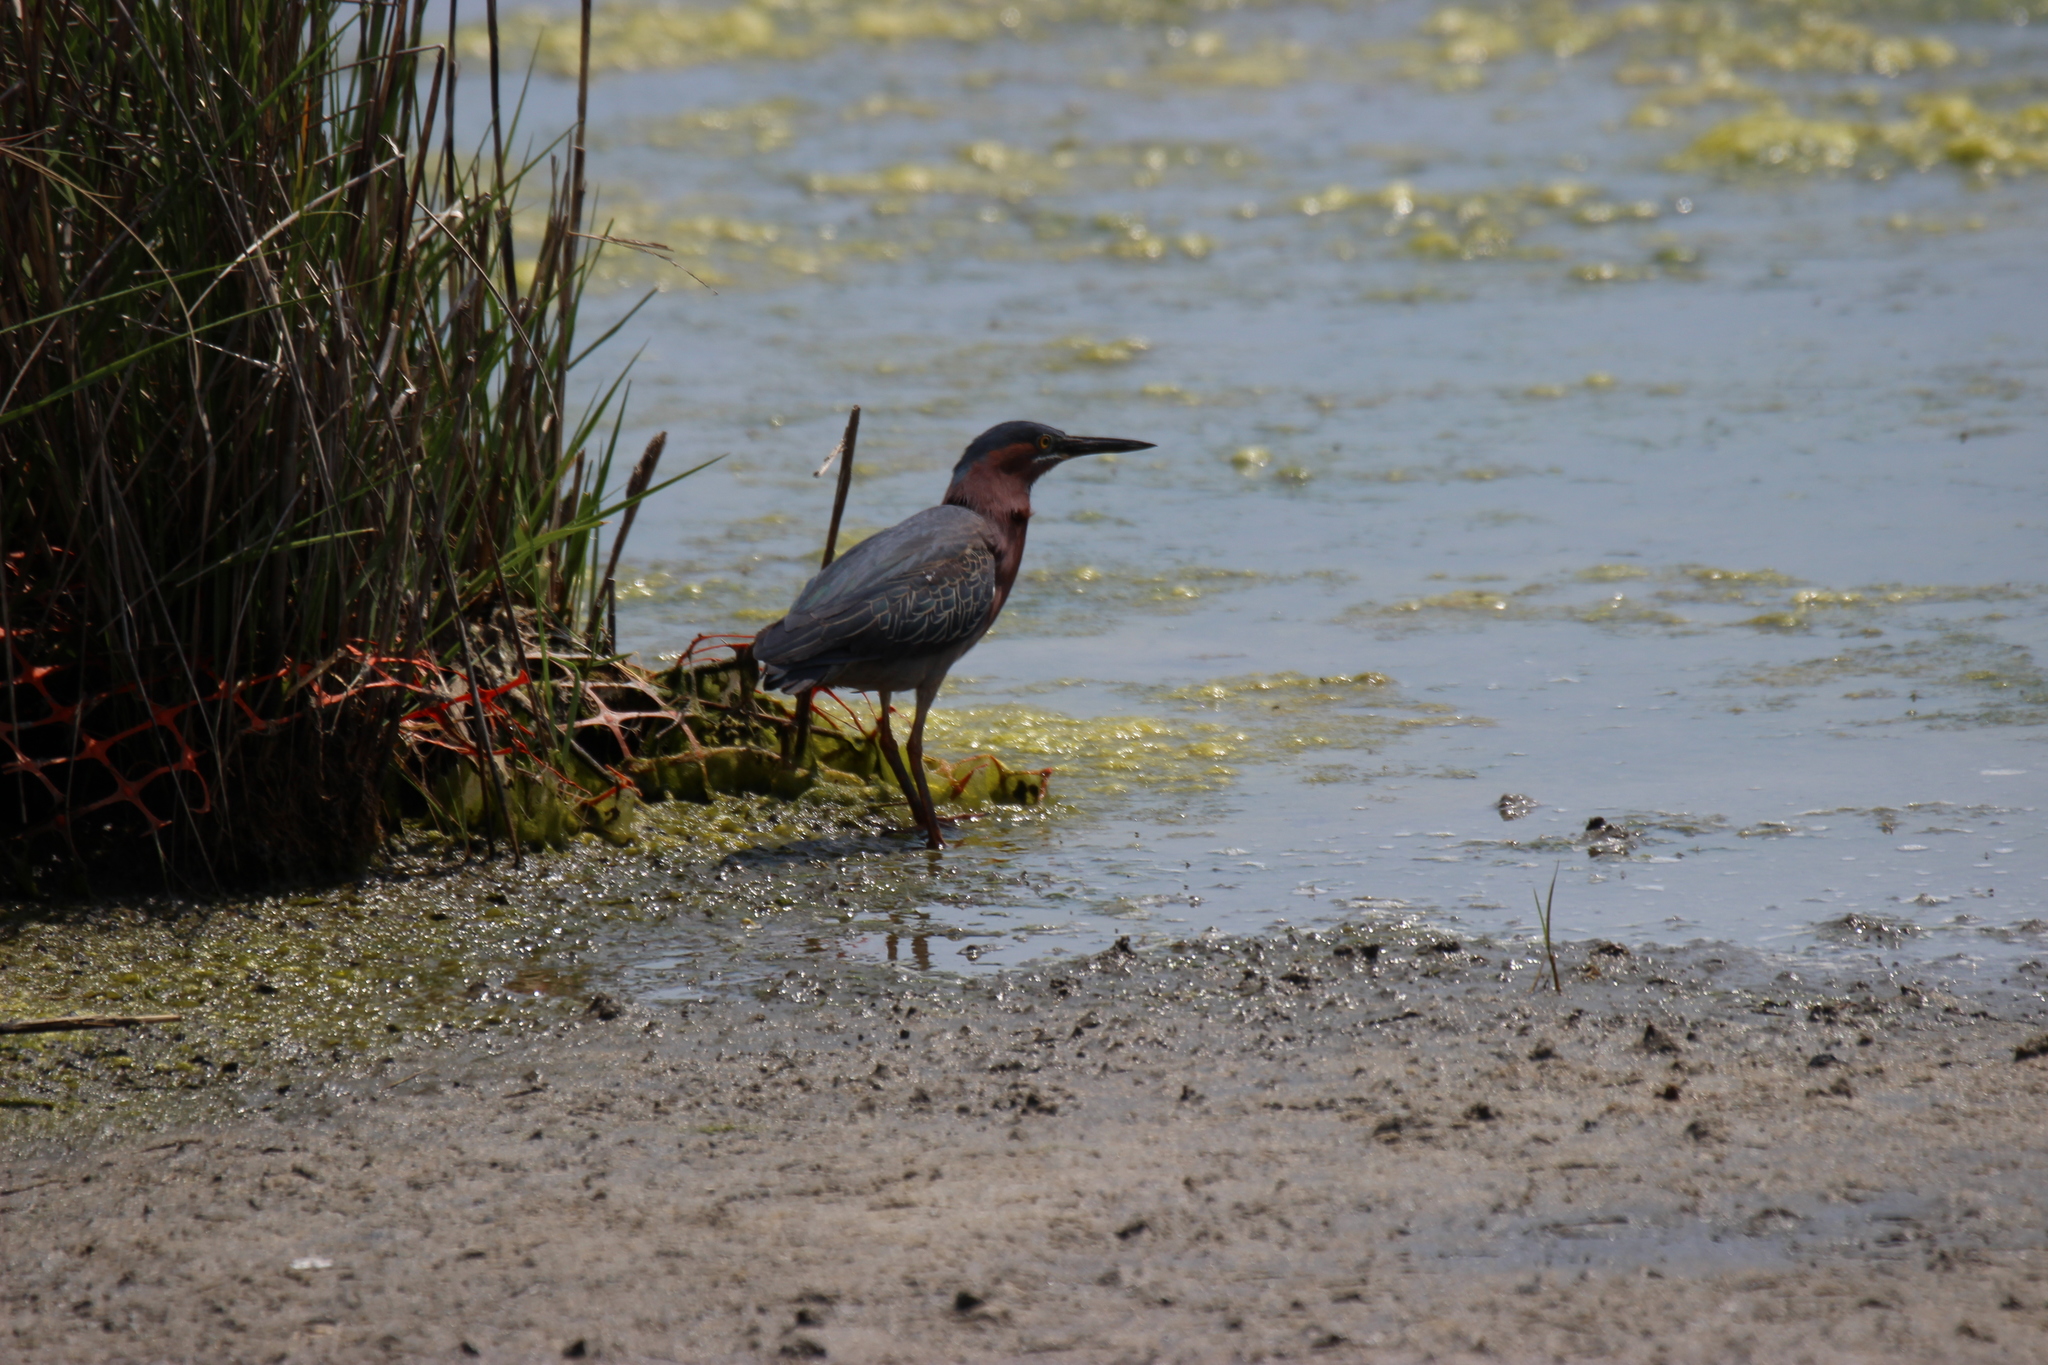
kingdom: Animalia
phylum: Chordata
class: Aves
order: Pelecaniformes
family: Ardeidae
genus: Butorides
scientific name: Butorides virescens
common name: Green heron
